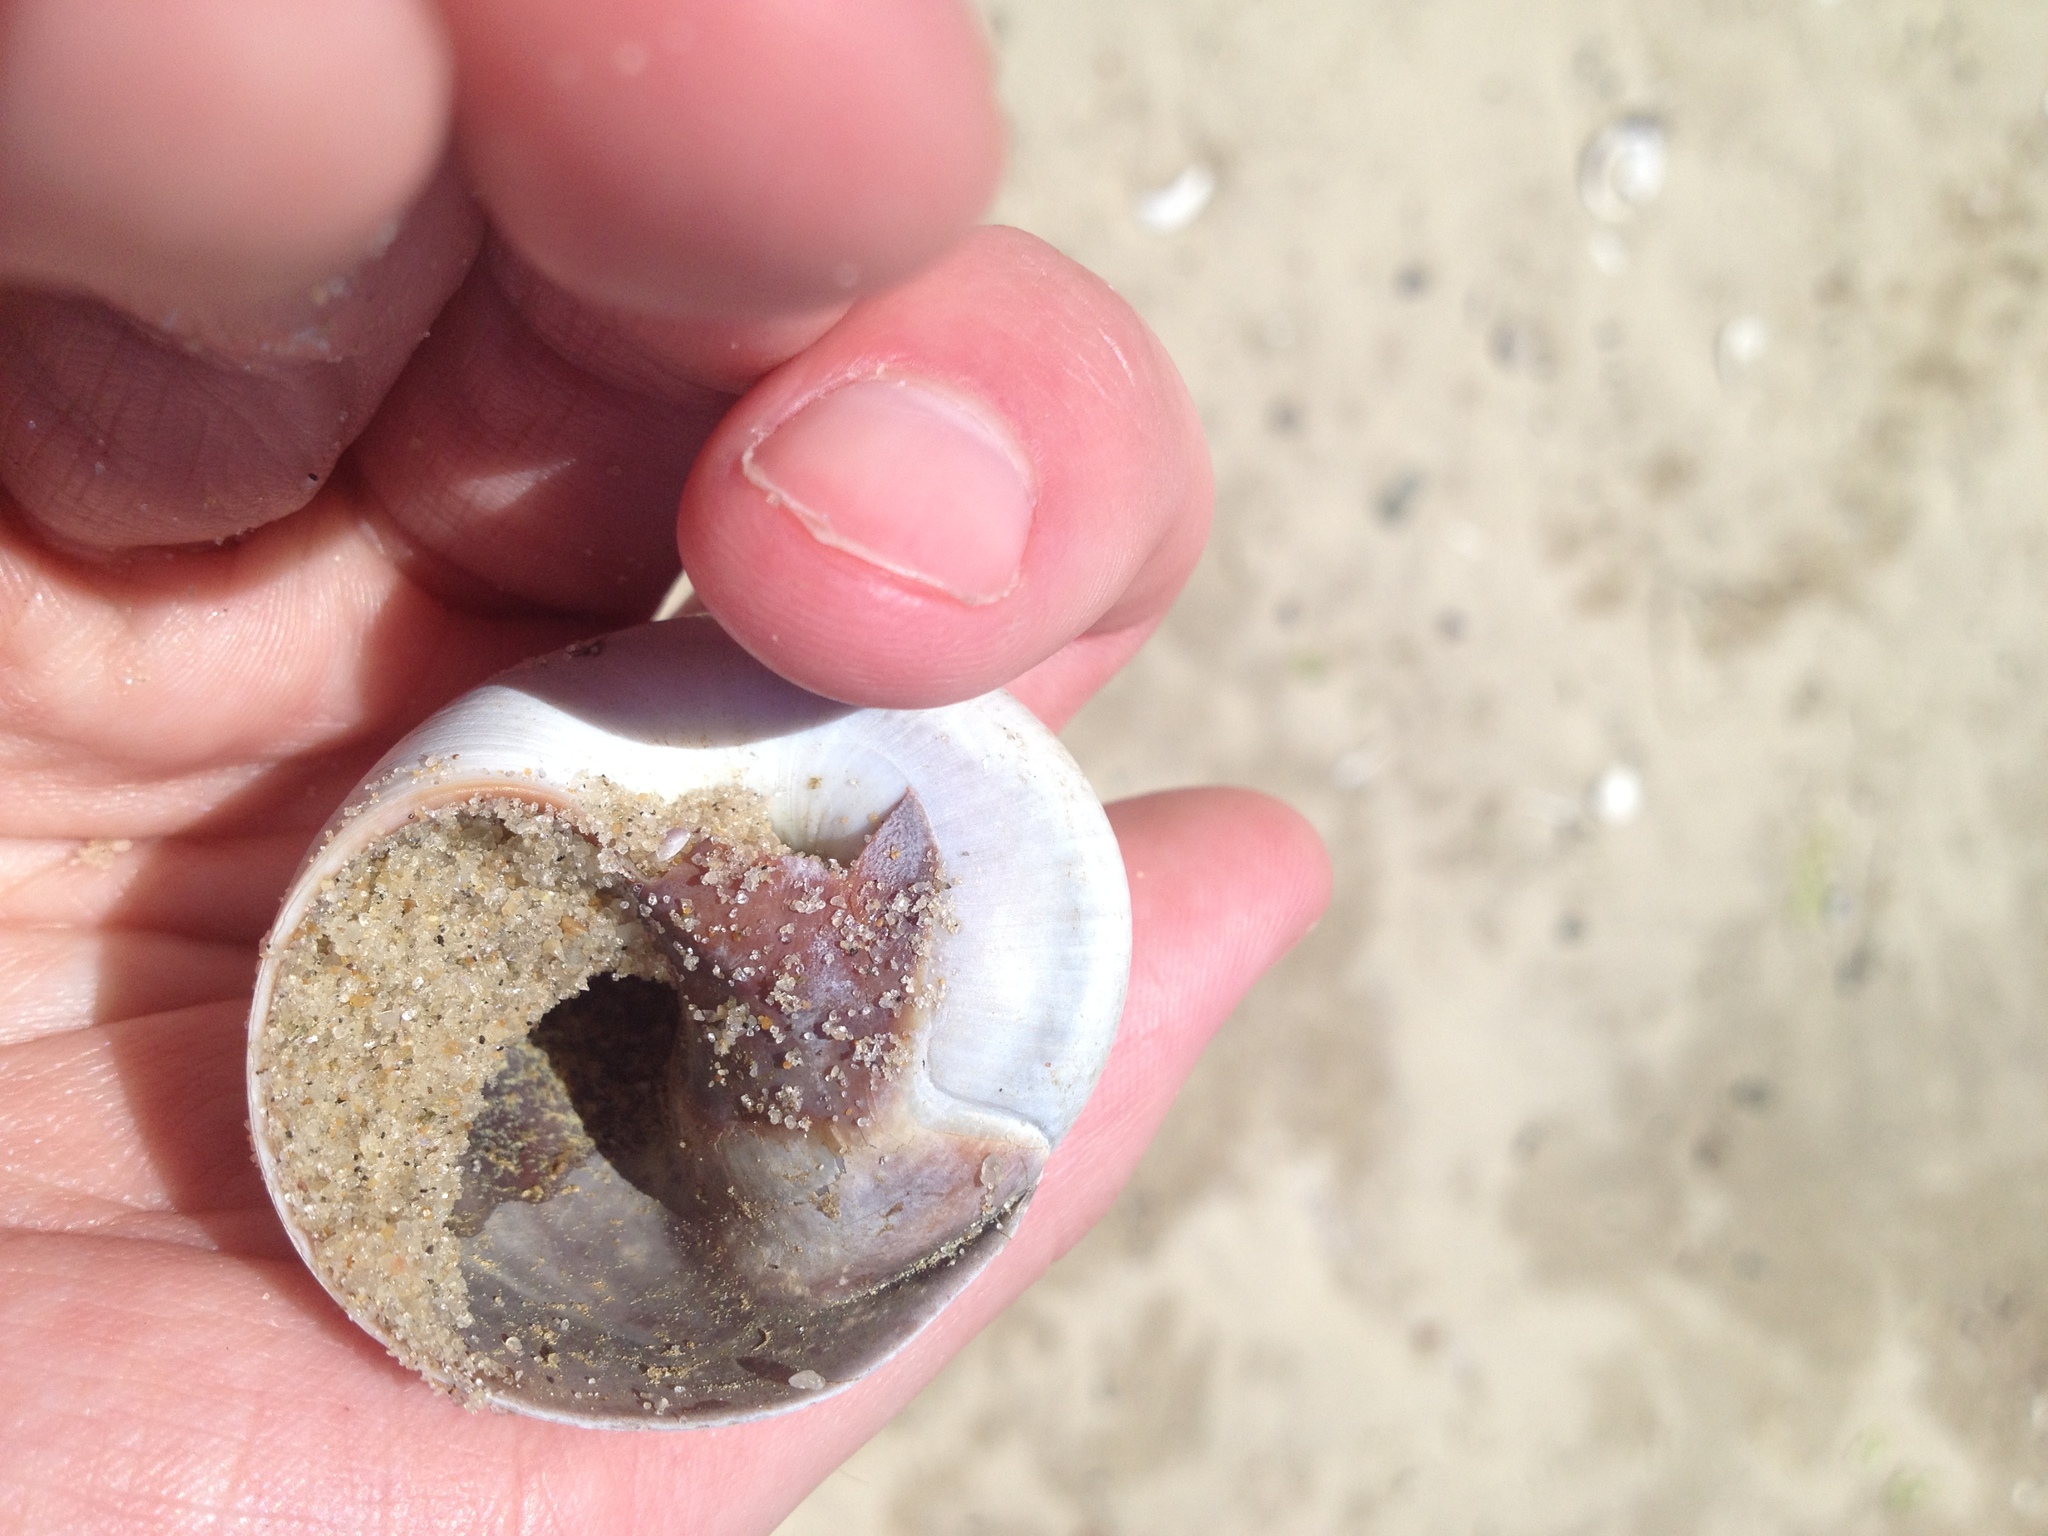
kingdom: Animalia
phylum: Mollusca
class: Gastropoda
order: Littorinimorpha
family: Naticidae
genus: Neverita
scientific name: Neverita duplicata
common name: Lobed moonsnail
